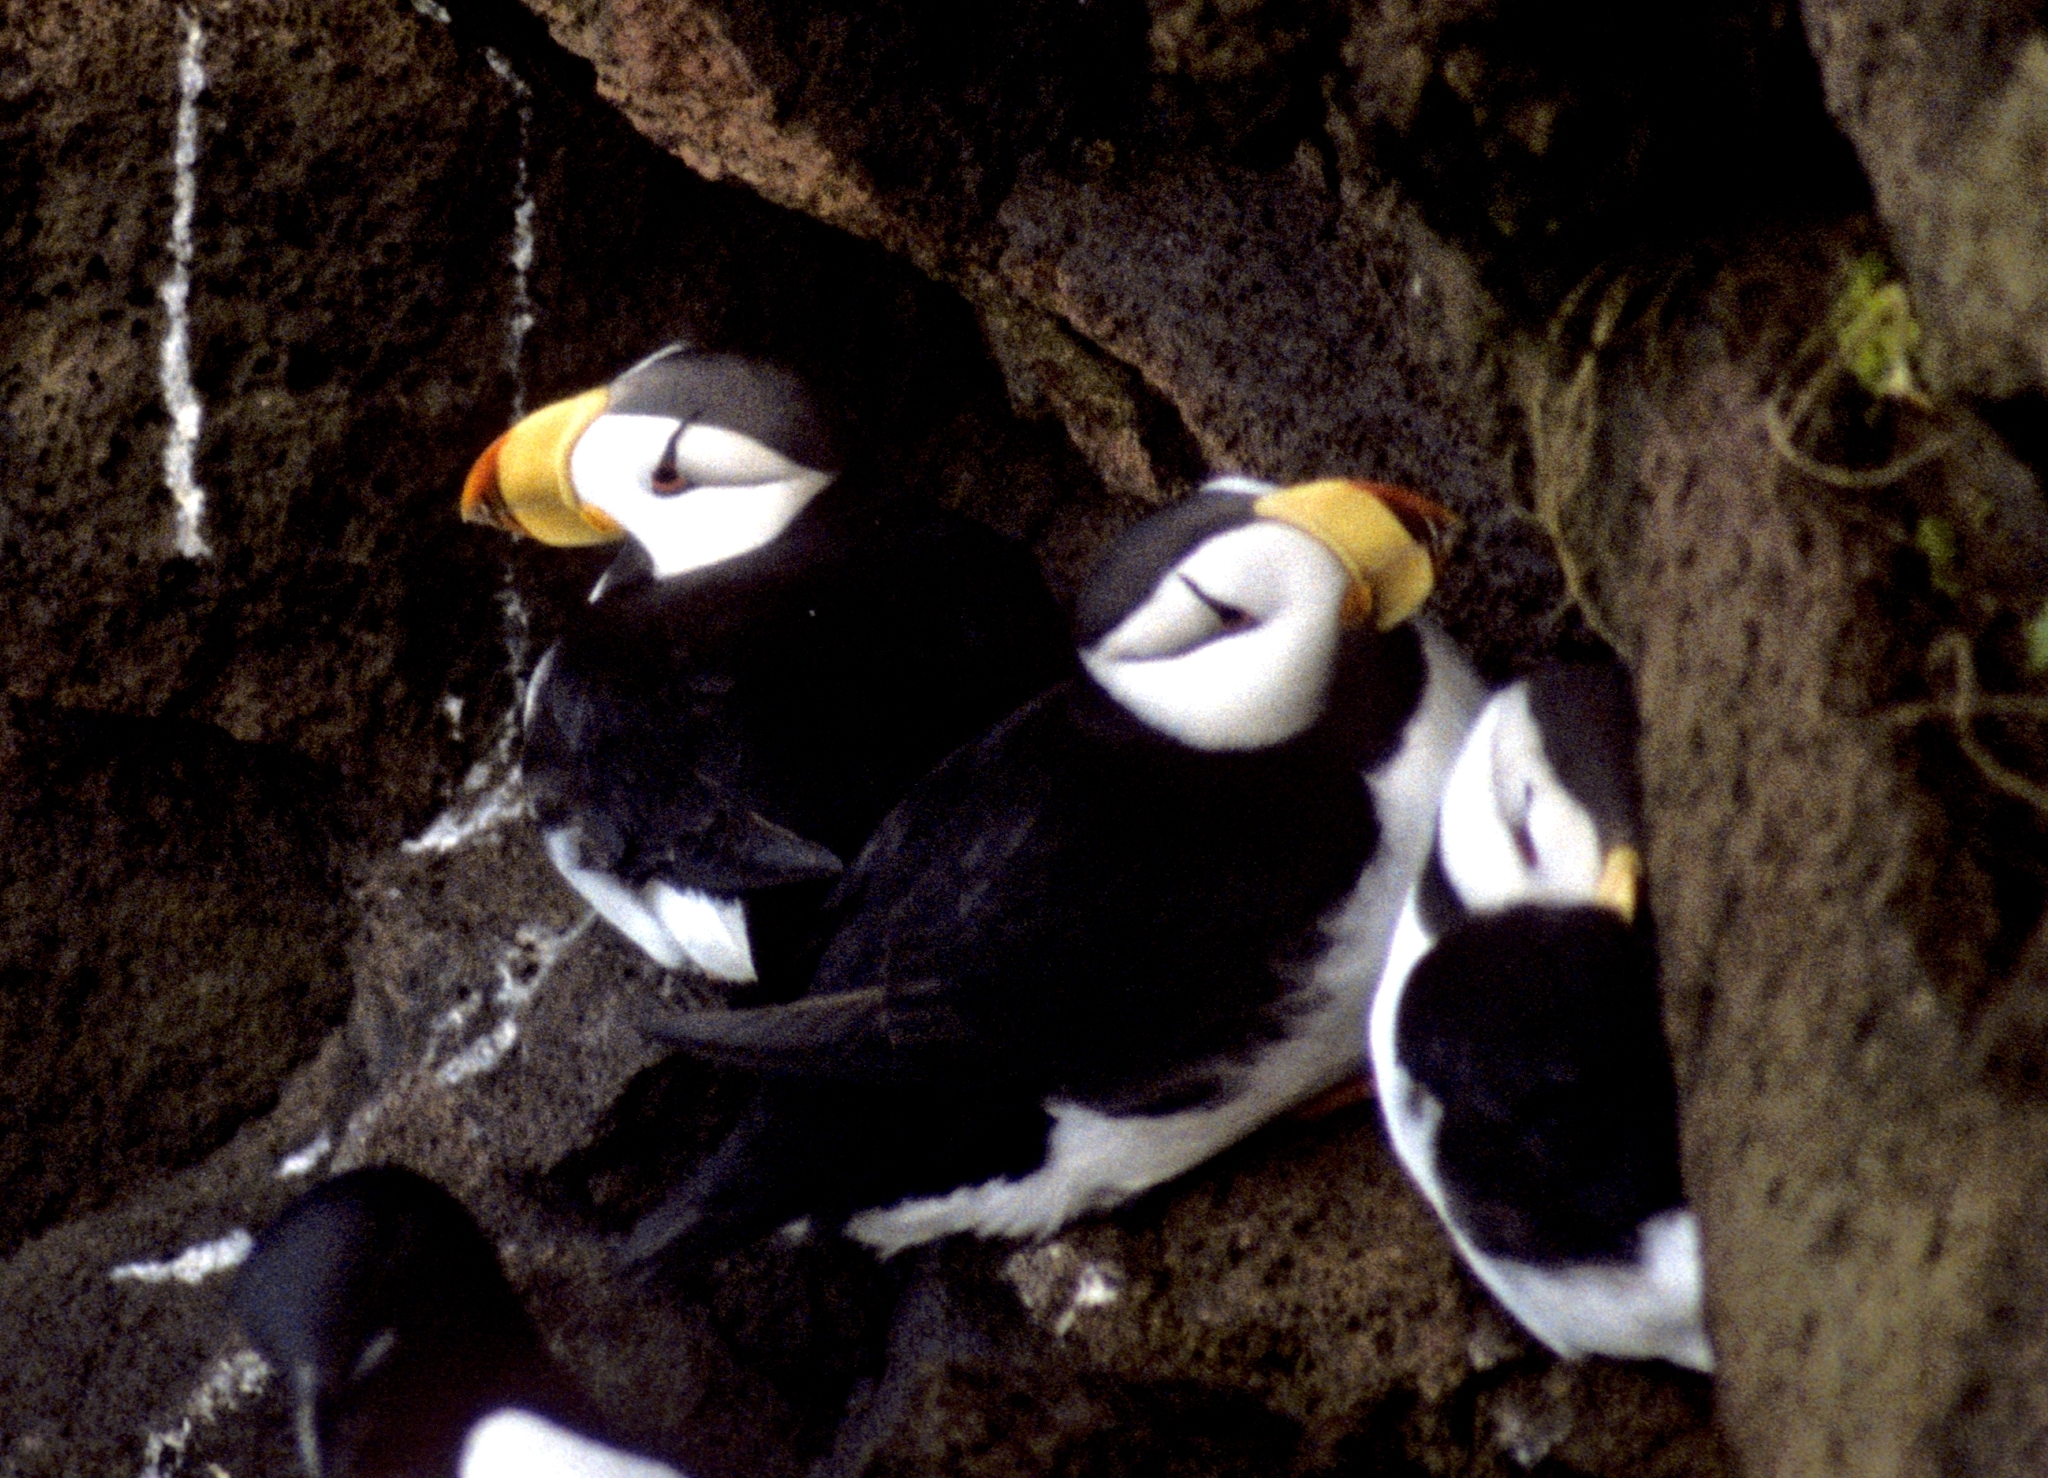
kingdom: Animalia
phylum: Chordata
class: Aves
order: Charadriiformes
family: Alcidae
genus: Fratercula
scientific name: Fratercula corniculata
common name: Horned puffin
